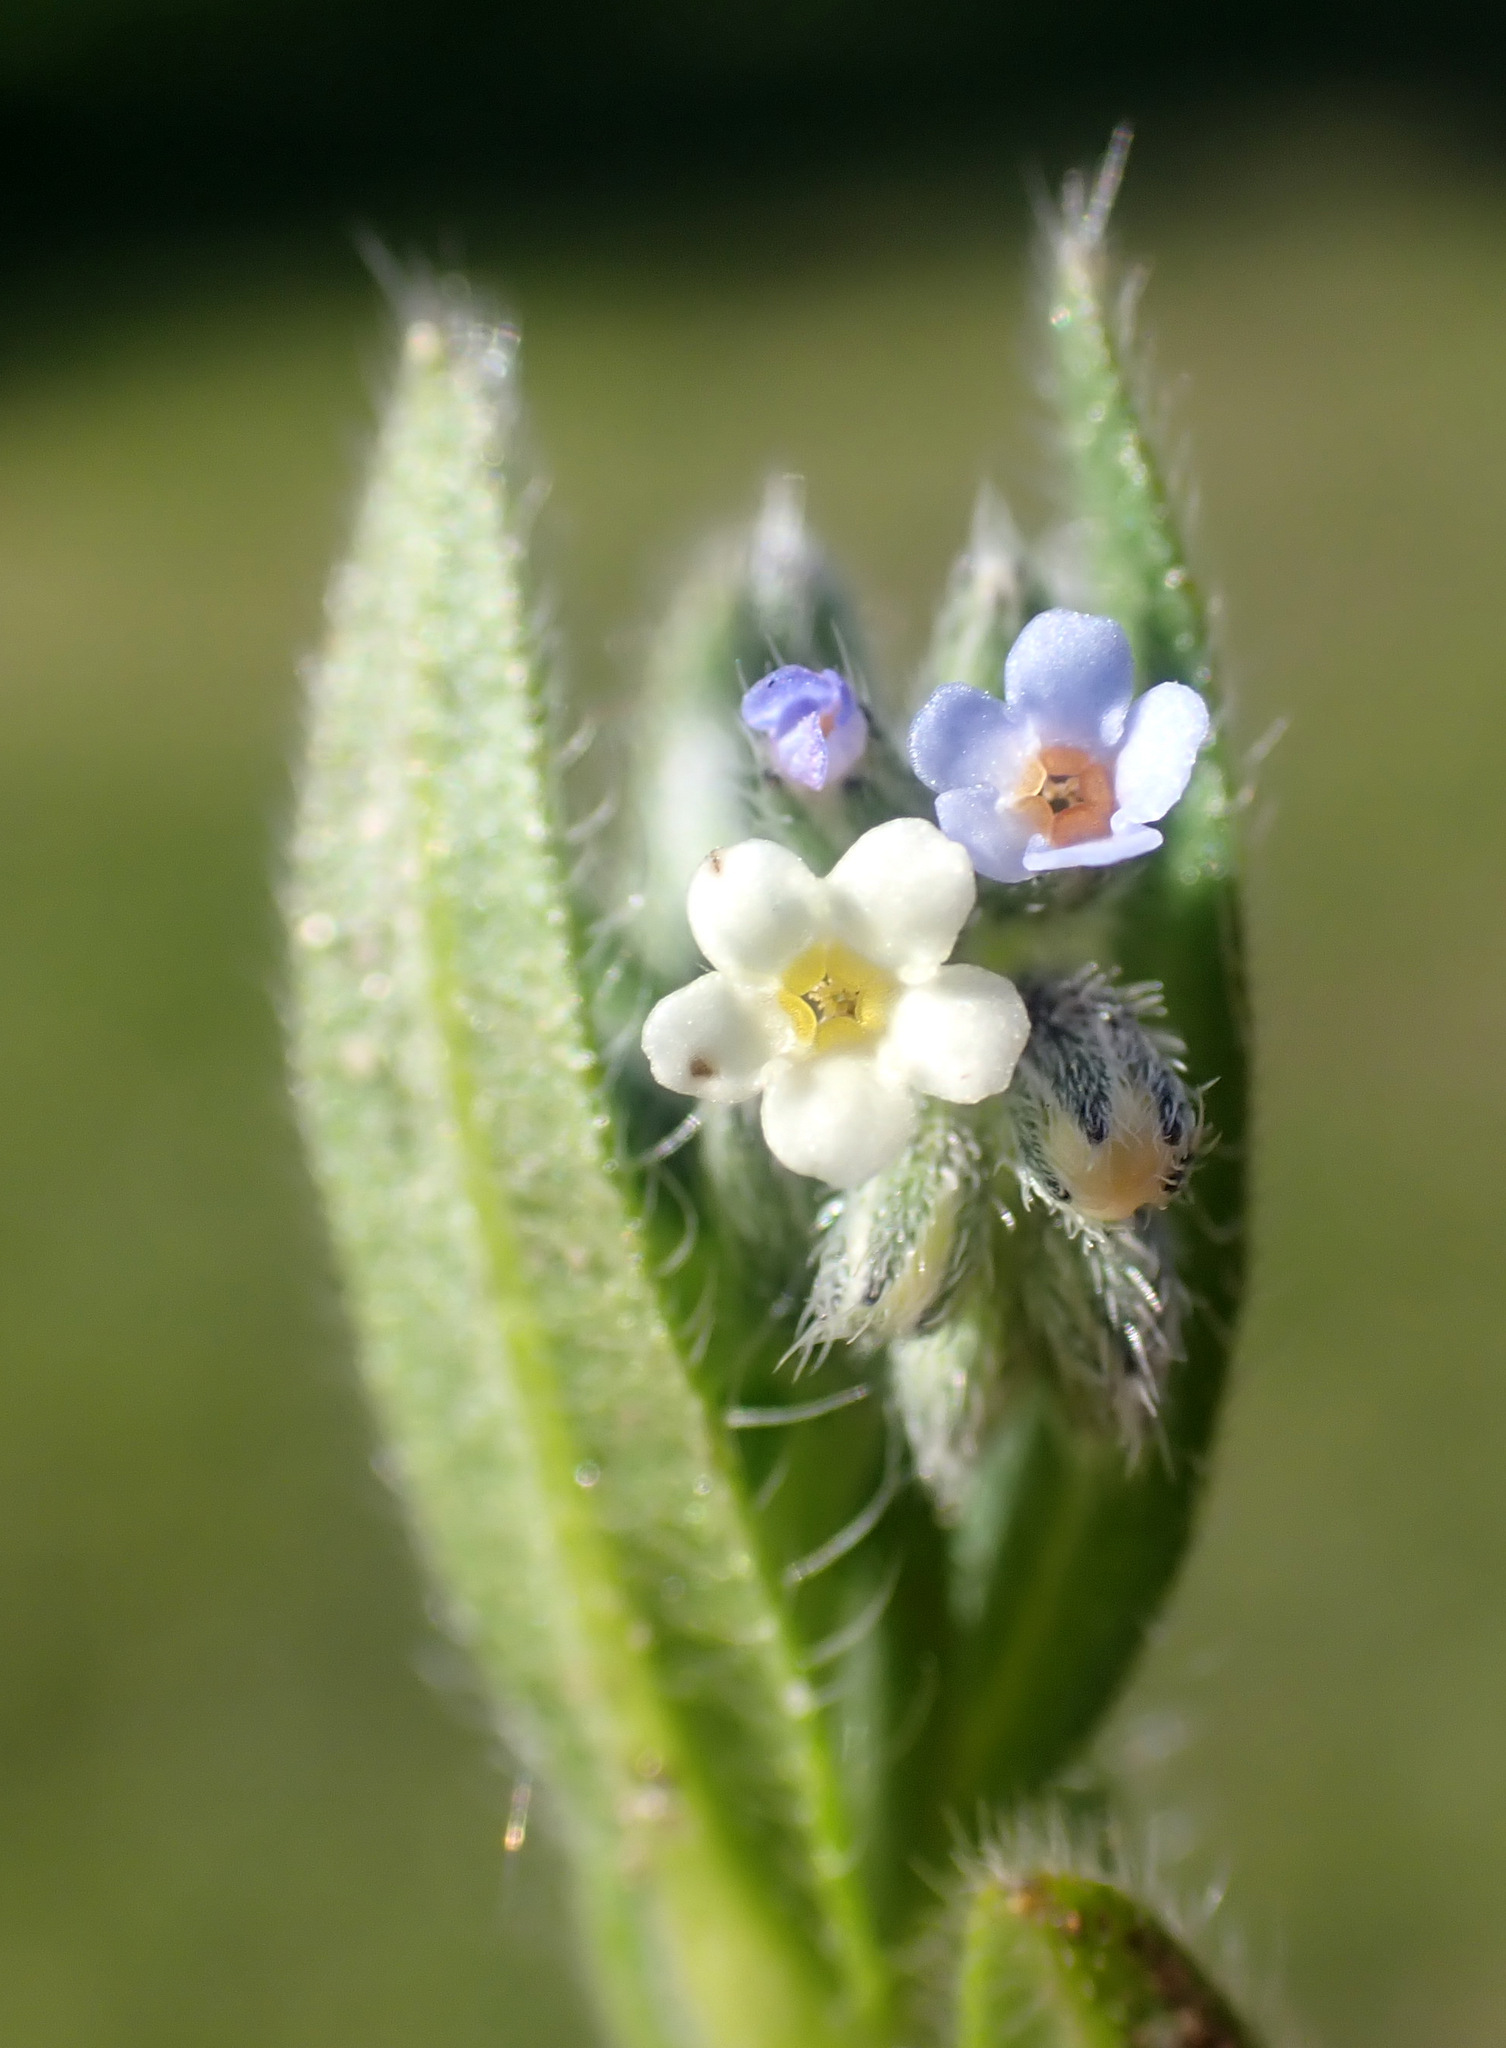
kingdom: Plantae
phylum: Tracheophyta
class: Magnoliopsida
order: Boraginales
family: Boraginaceae
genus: Myosotis
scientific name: Myosotis discolor
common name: Changing forget-me-not
